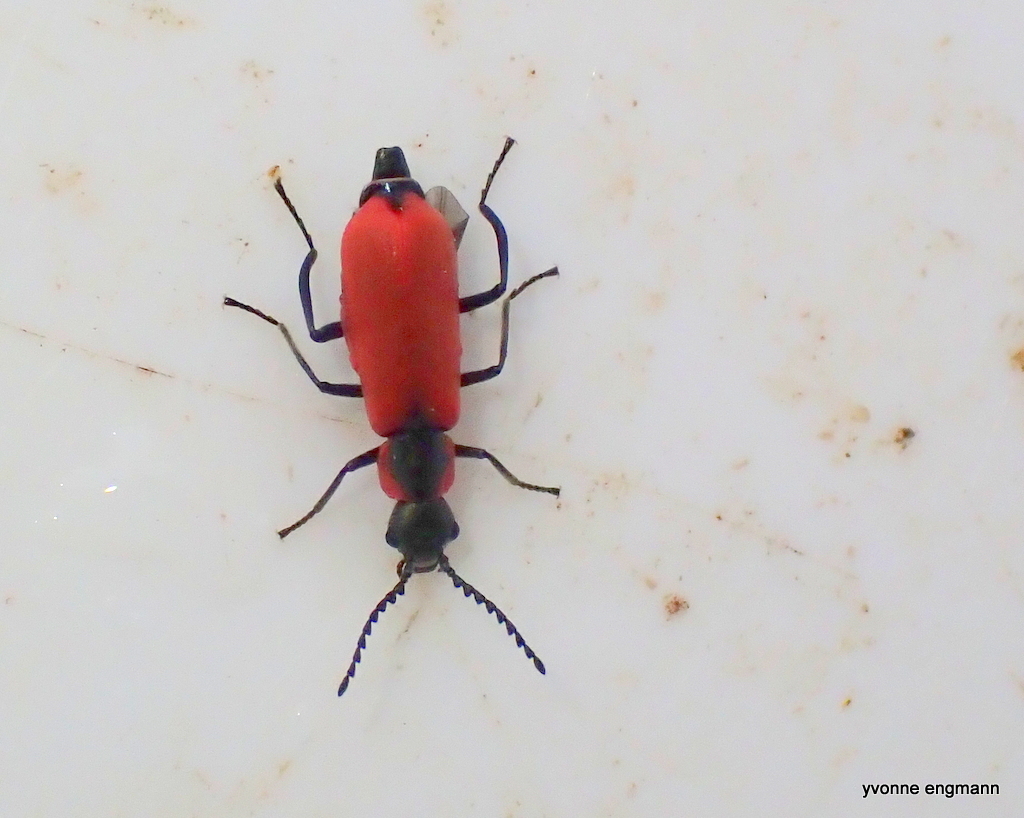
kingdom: Animalia
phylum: Arthropoda
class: Insecta
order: Coleoptera
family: Melyridae
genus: Anthocomus
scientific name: Anthocomus rufus
